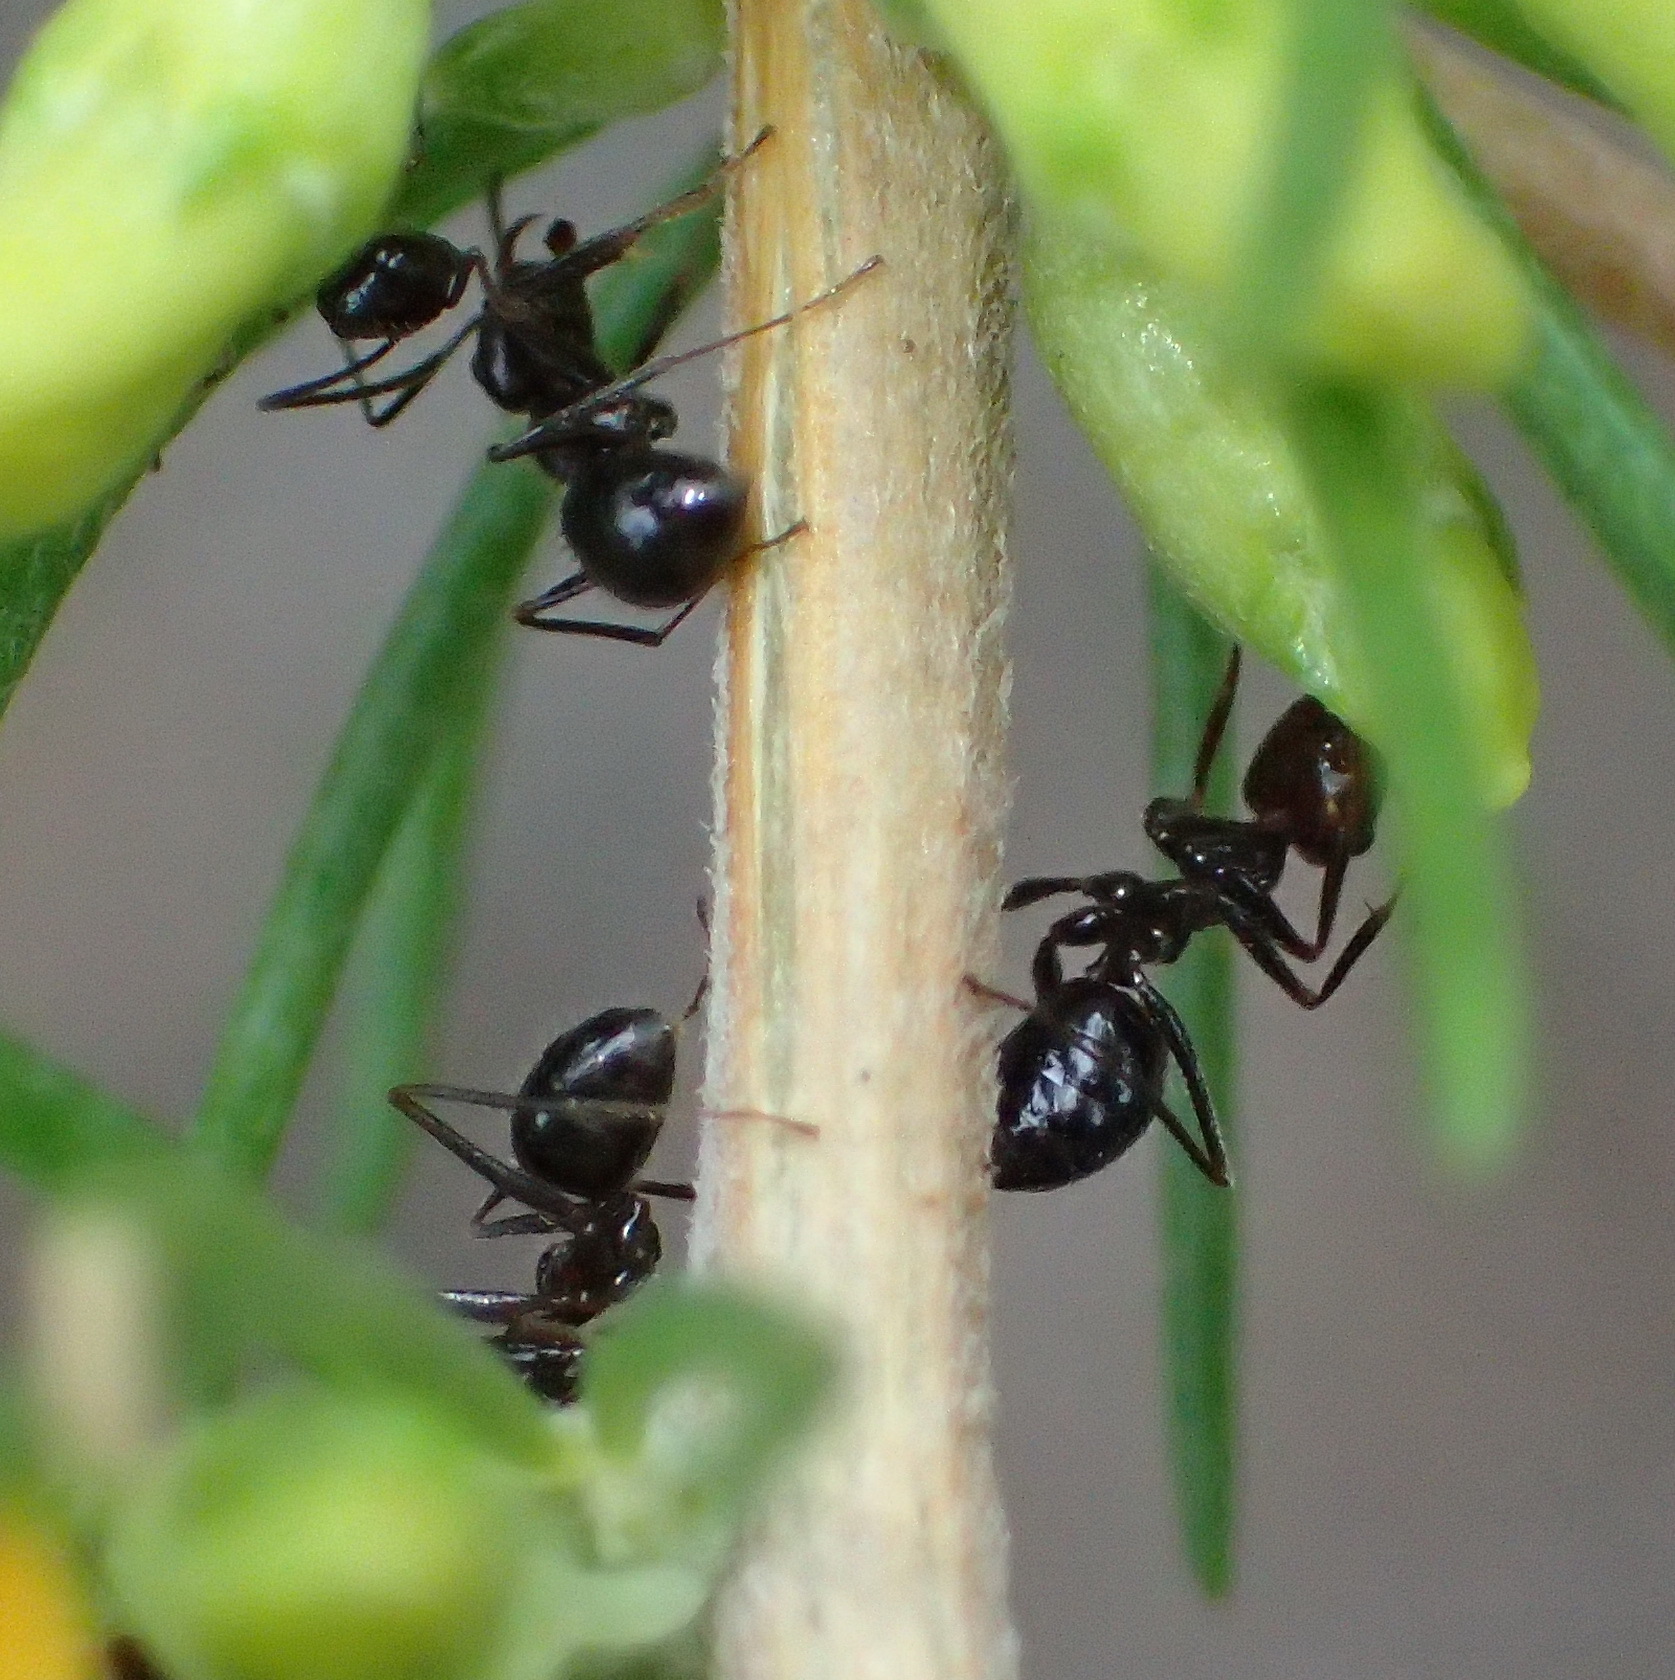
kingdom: Animalia
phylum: Arthropoda
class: Insecta
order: Hymenoptera
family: Formicidae
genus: Anoplolepis
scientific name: Anoplolepis steingroeveri
